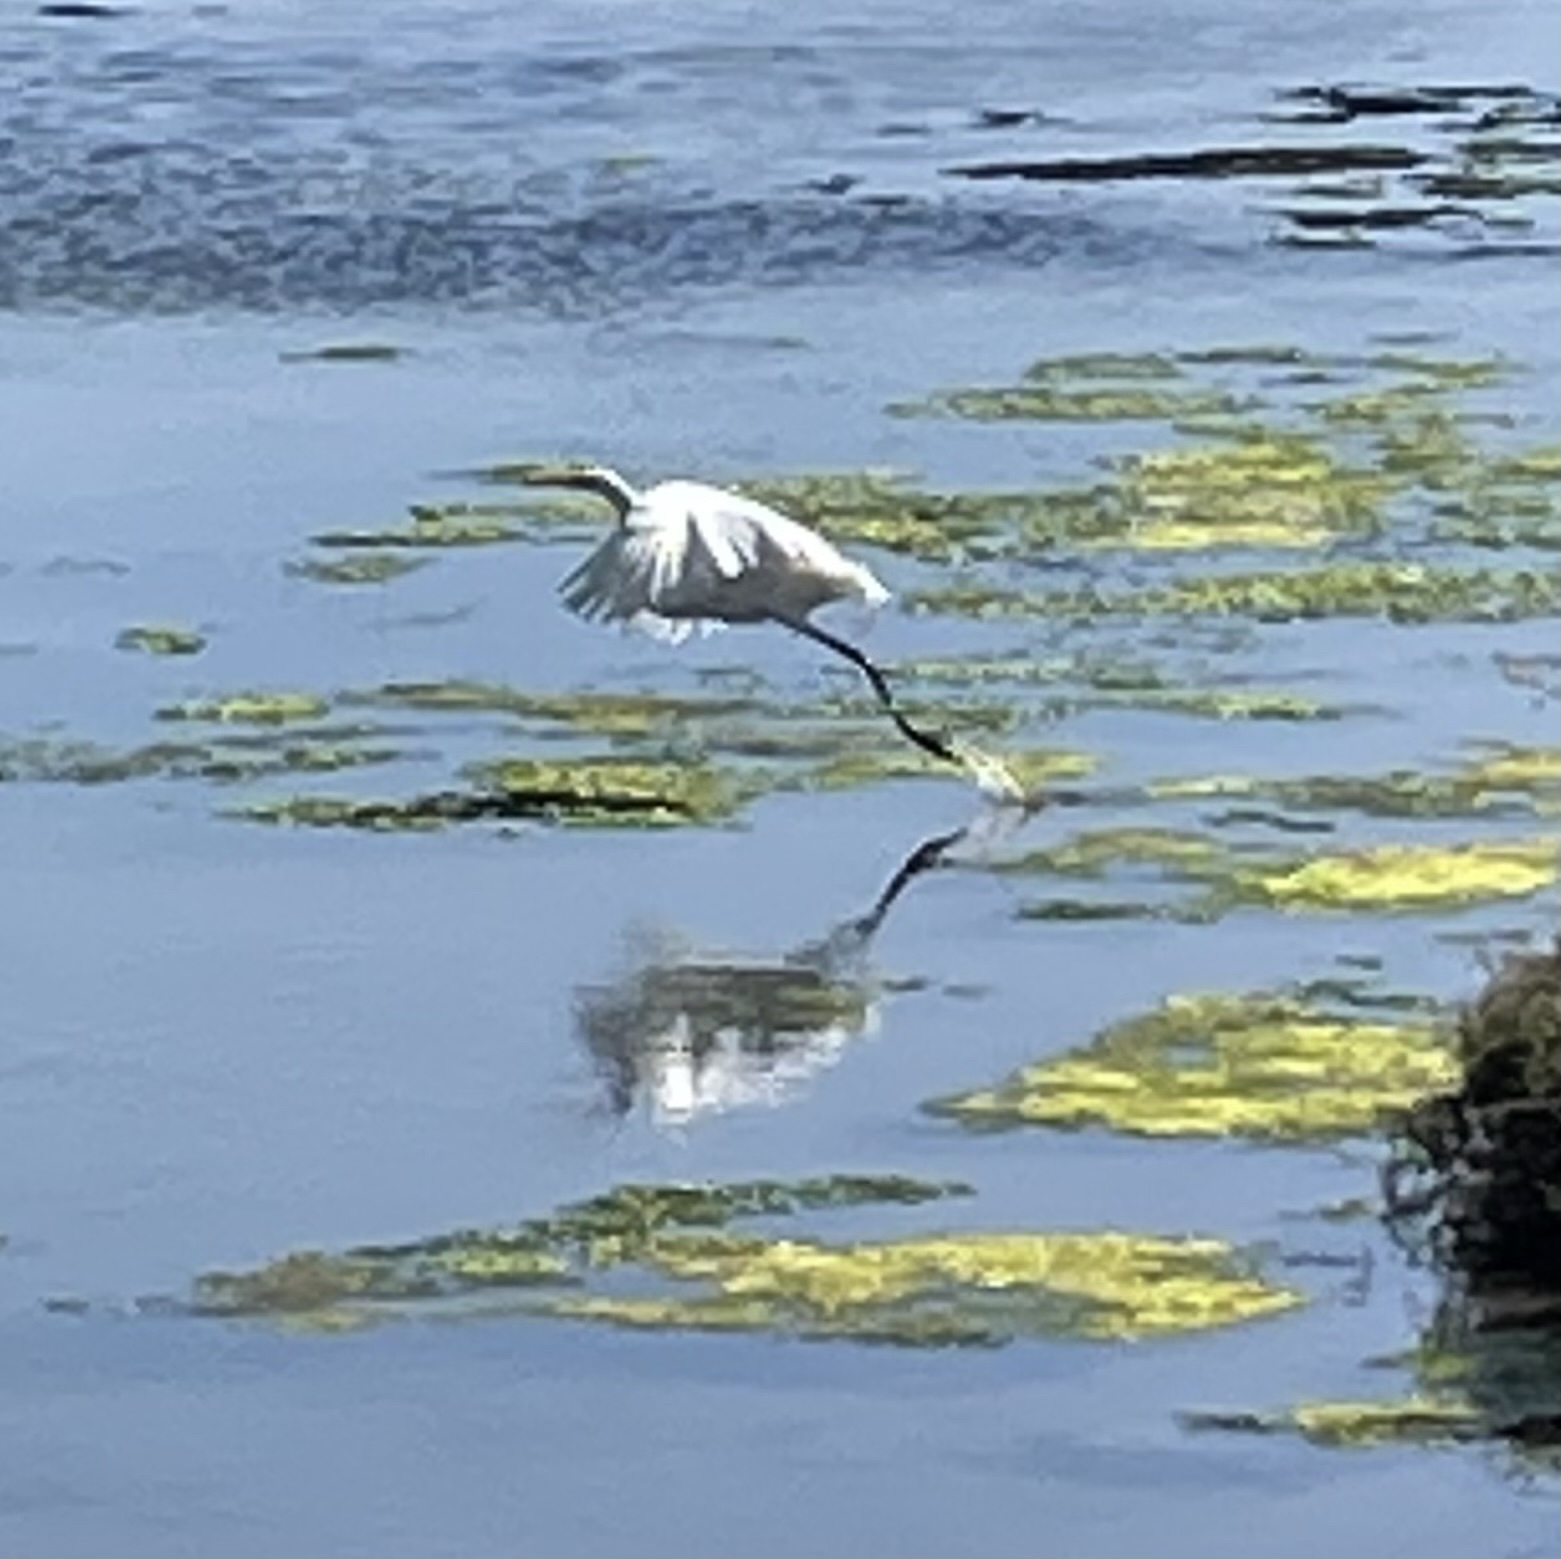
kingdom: Animalia
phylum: Chordata
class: Aves
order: Pelecaniformes
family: Ardeidae
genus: Ardea
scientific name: Ardea alba
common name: Great egret
